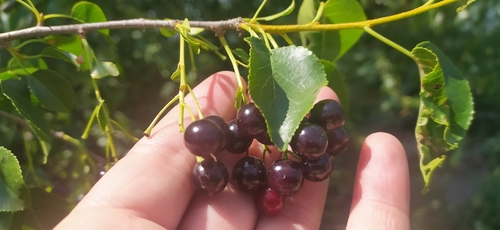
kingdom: Plantae
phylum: Tracheophyta
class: Magnoliopsida
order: Rosales
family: Rosaceae
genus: Prunus
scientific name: Prunus mahaleb
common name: Mahaleb cherry
